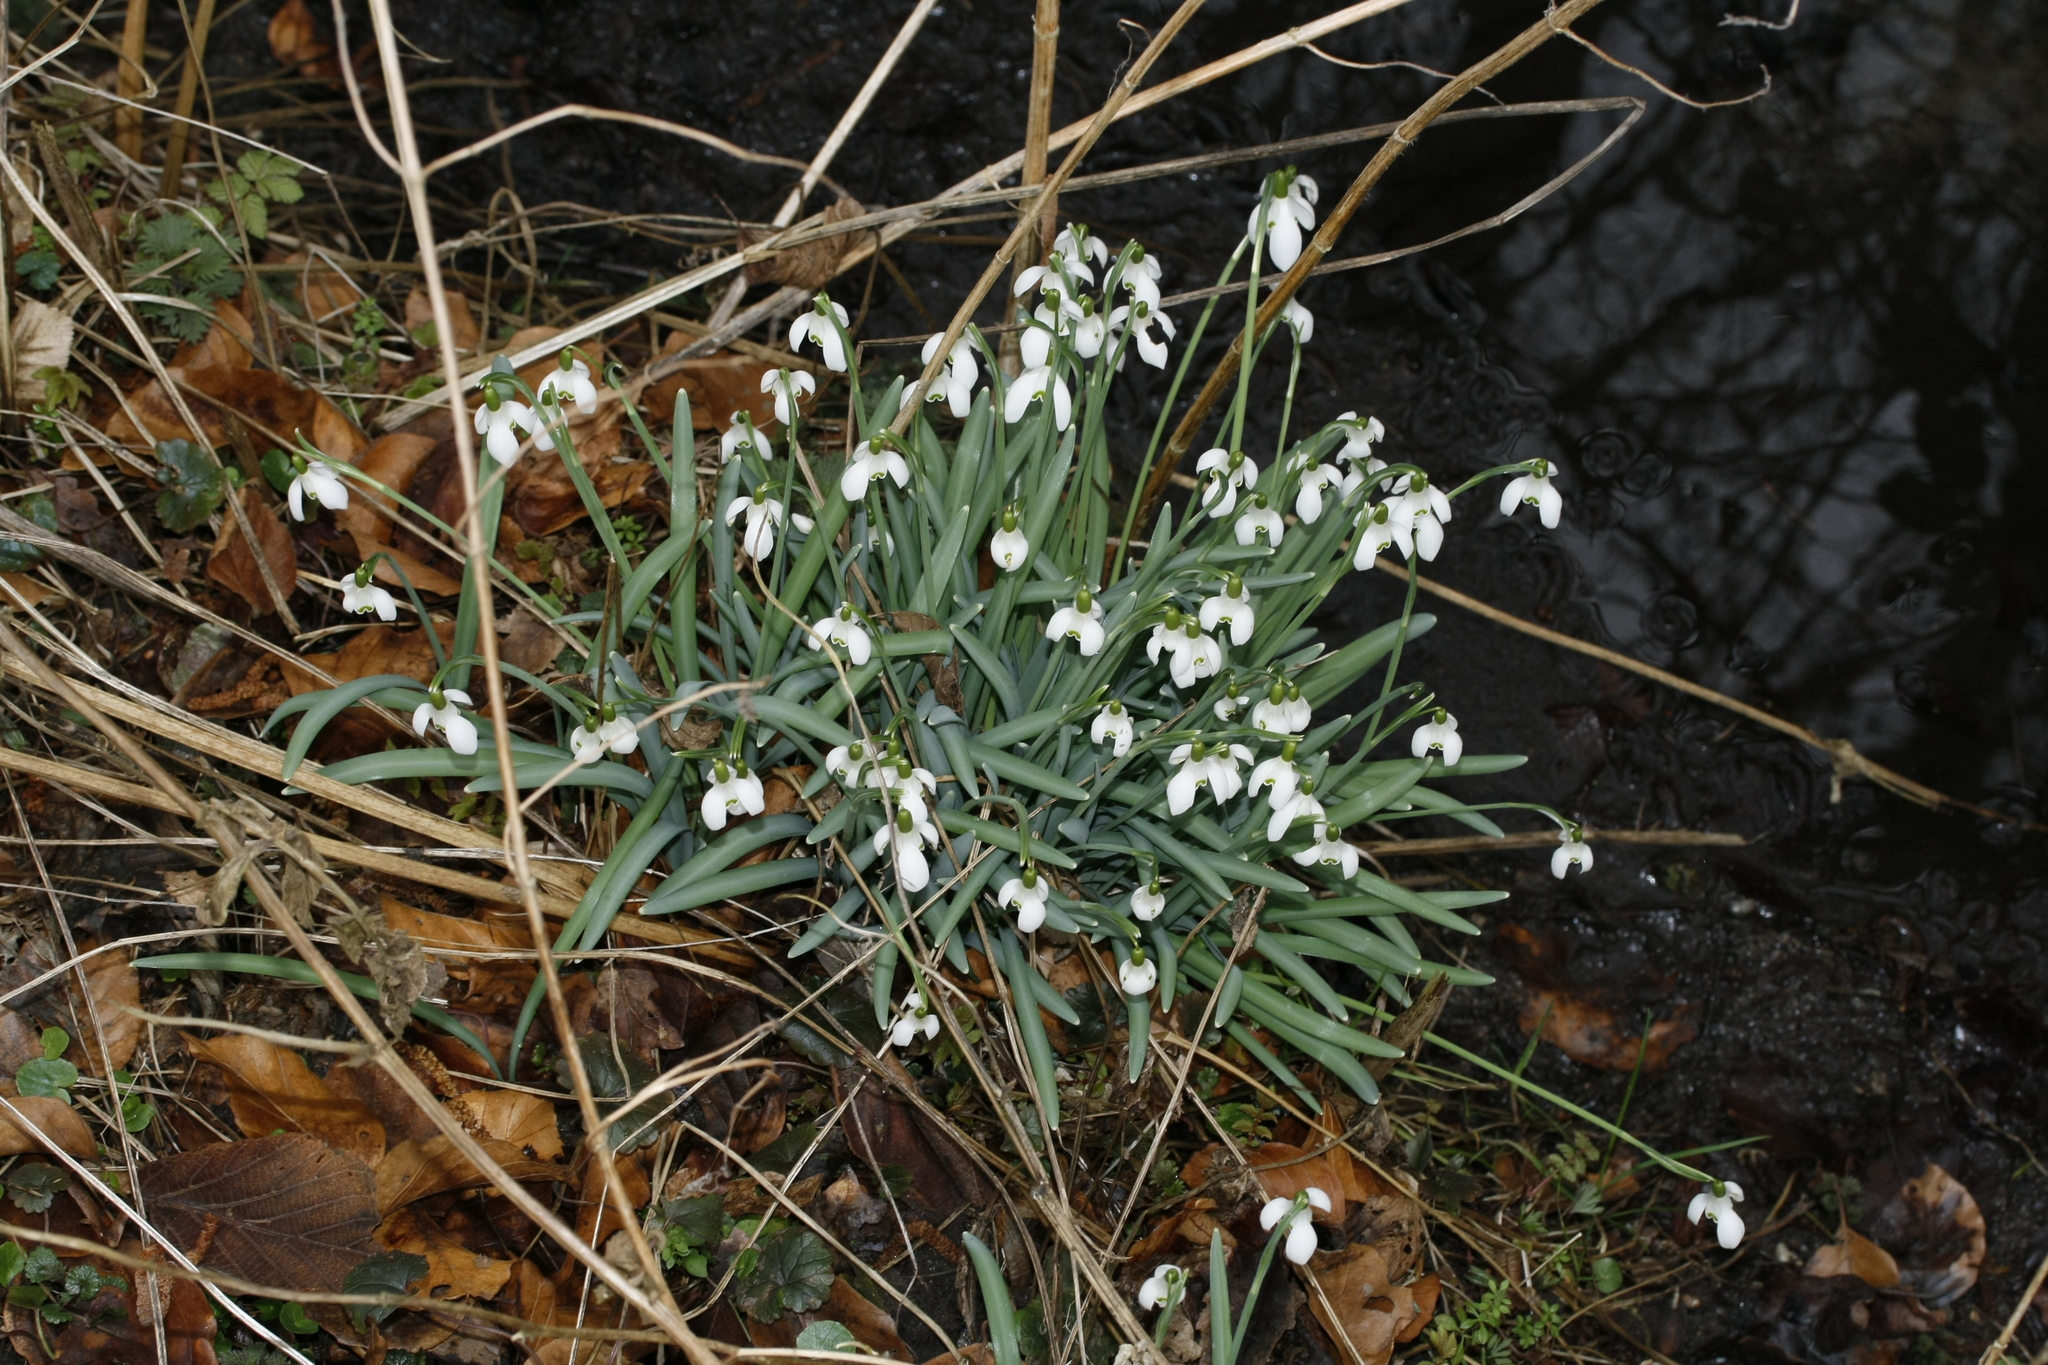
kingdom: Plantae
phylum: Tracheophyta
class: Liliopsida
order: Asparagales
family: Amaryllidaceae
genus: Galanthus
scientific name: Galanthus nivalis
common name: Snowdrop
